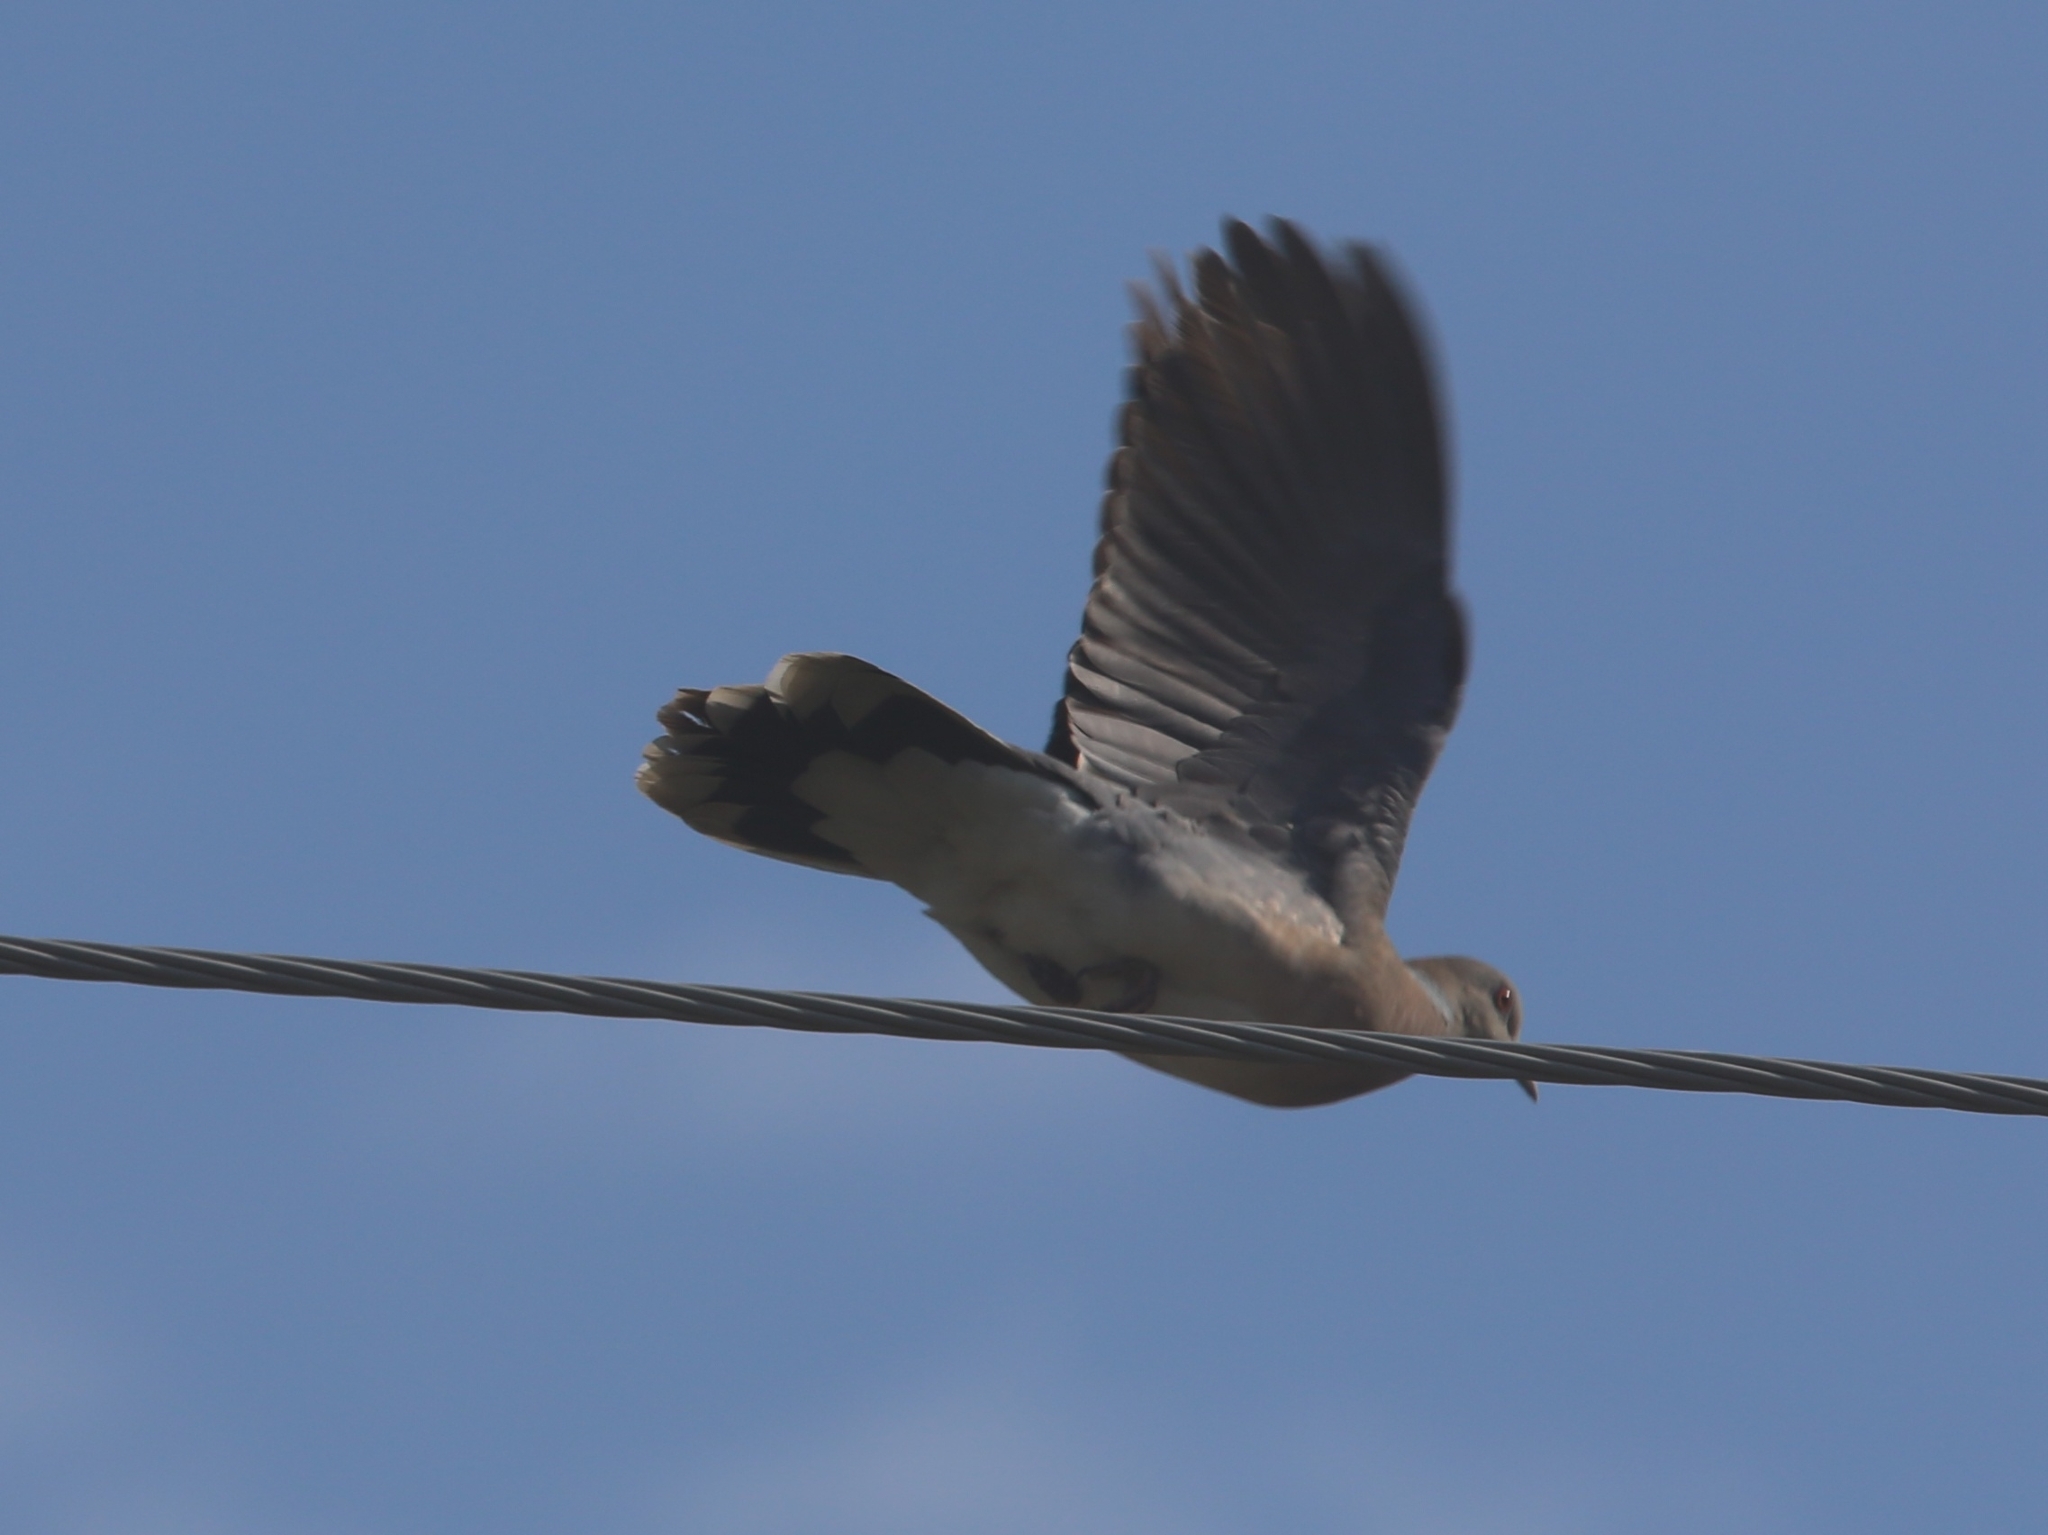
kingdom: Animalia
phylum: Chordata
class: Aves
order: Columbiformes
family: Columbidae
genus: Streptopelia
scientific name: Streptopelia orientalis
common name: Oriental turtle dove
